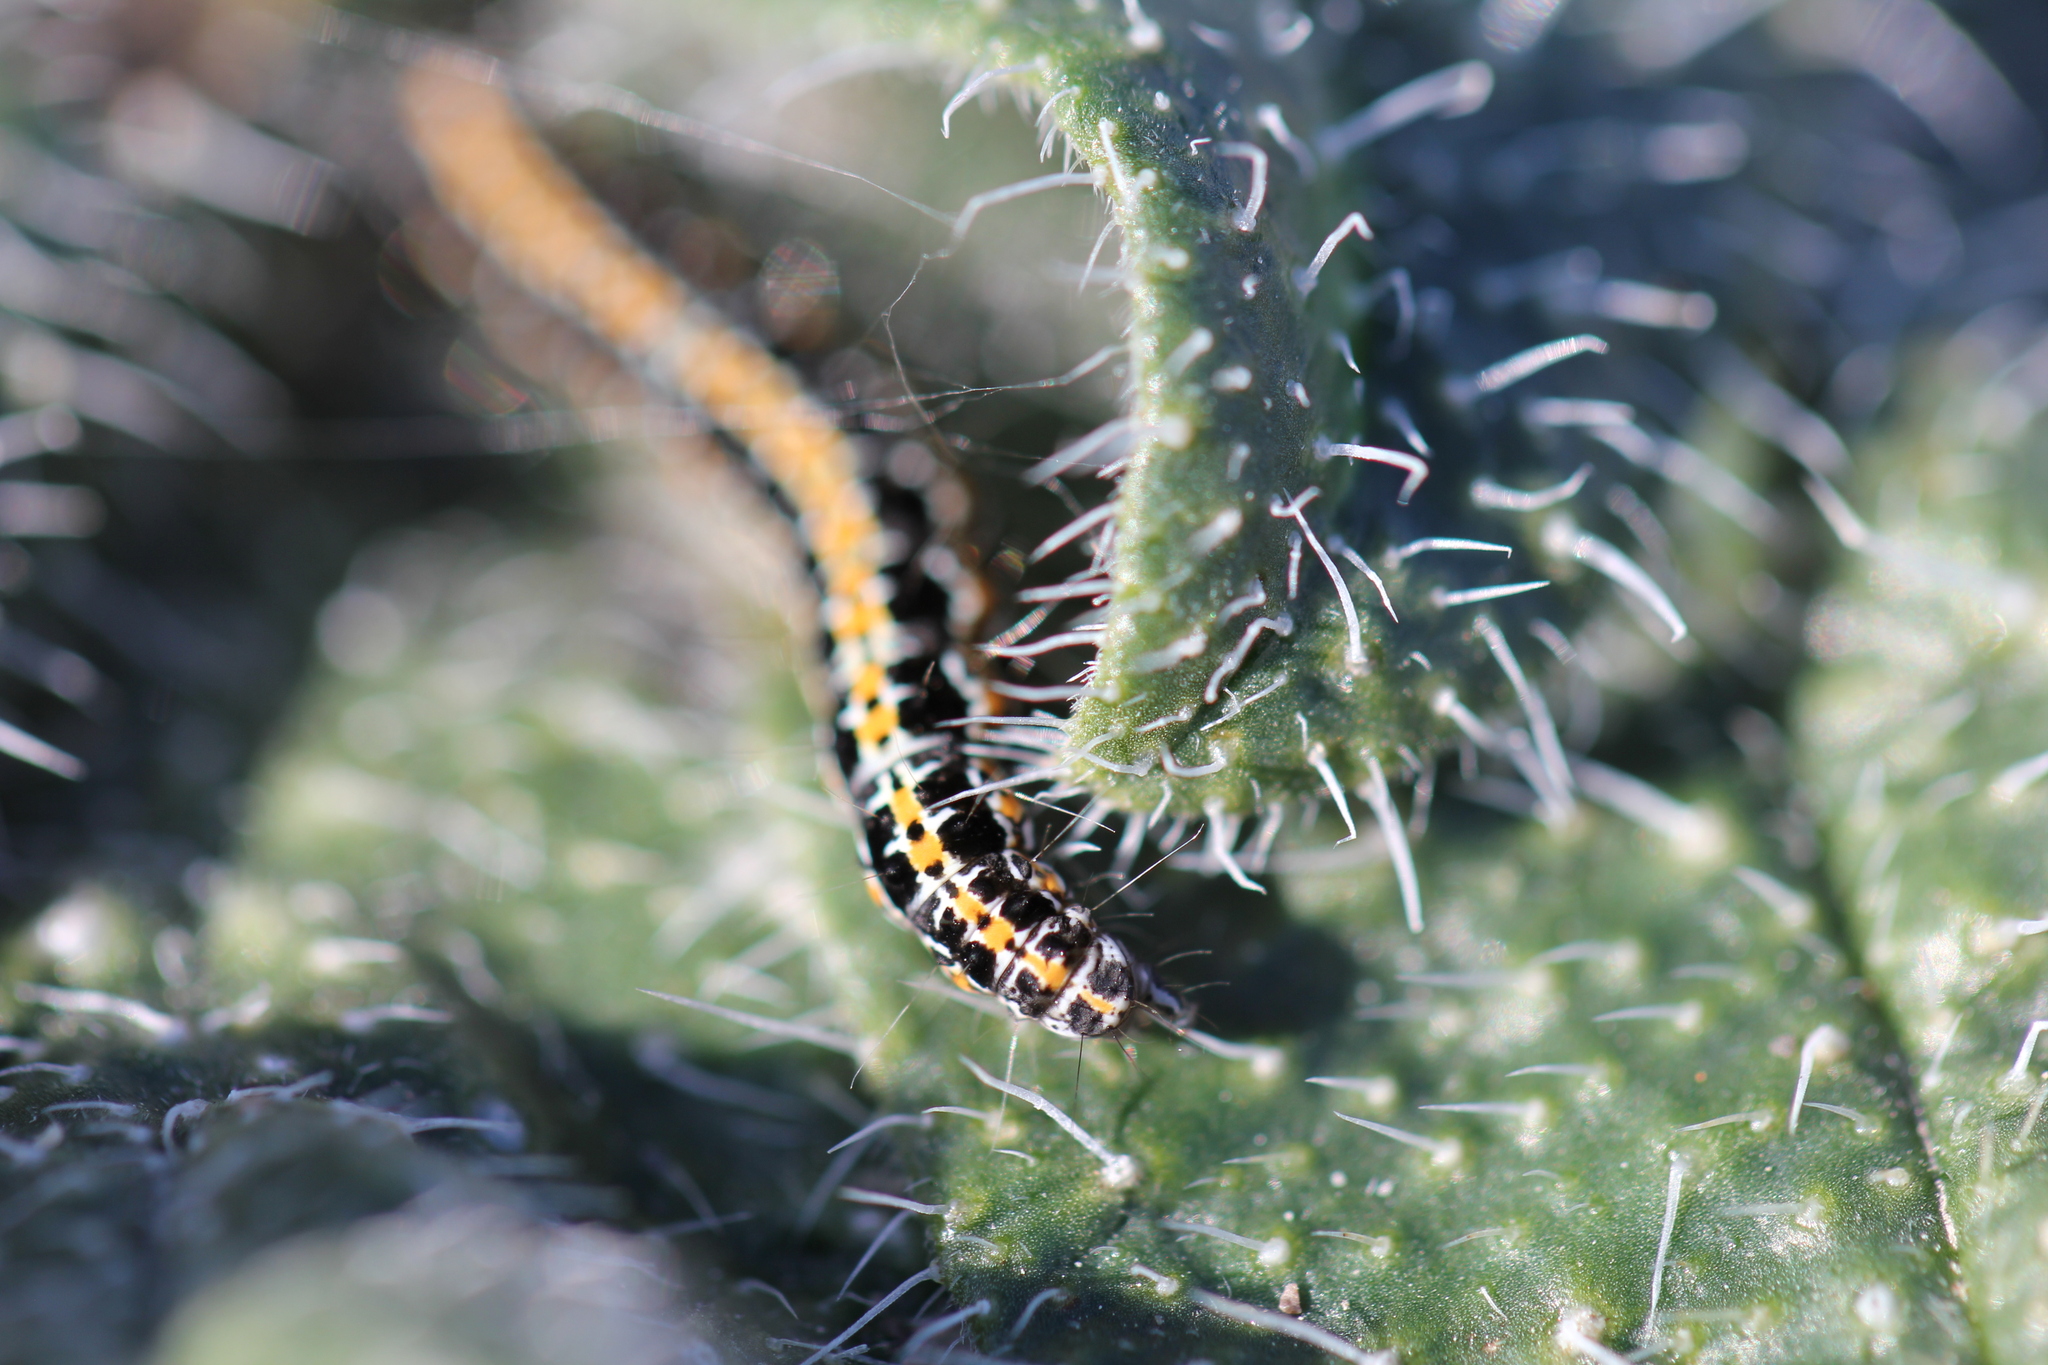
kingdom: Animalia
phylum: Arthropoda
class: Insecta
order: Lepidoptera
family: Ethmiidae
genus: Ethmia
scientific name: Ethmia bipunctella
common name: Bordered ermel
